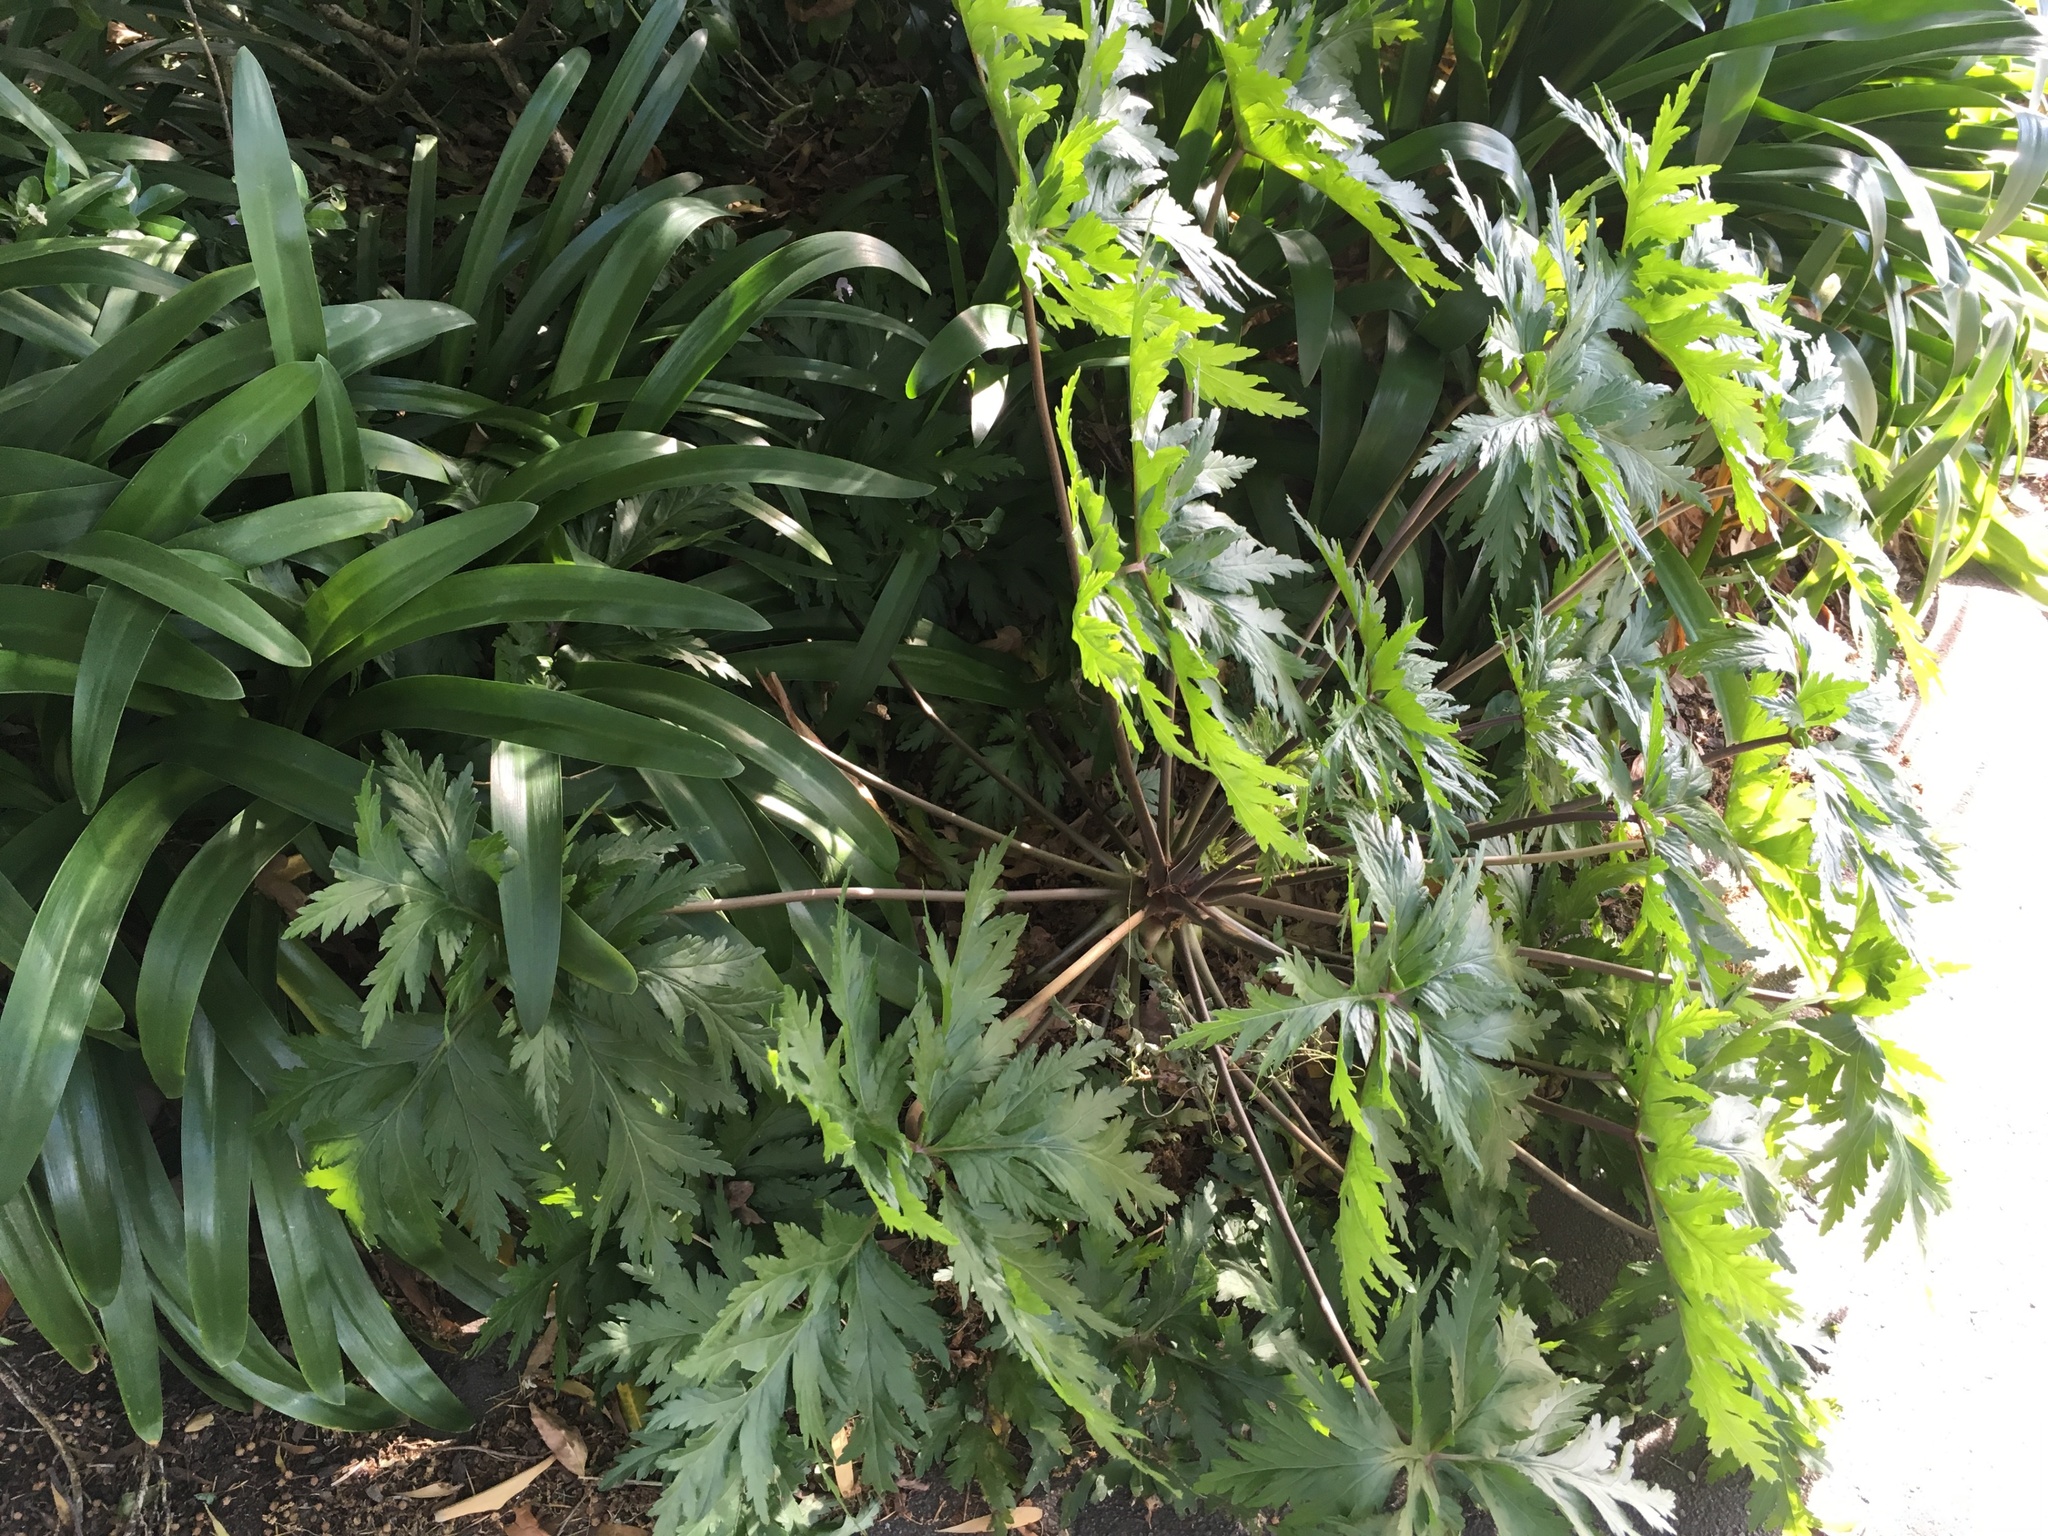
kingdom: Plantae
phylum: Tracheophyta
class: Magnoliopsida
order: Geraniales
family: Geraniaceae
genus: Geranium
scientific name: Geranium maderense
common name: Giant herb-robert
